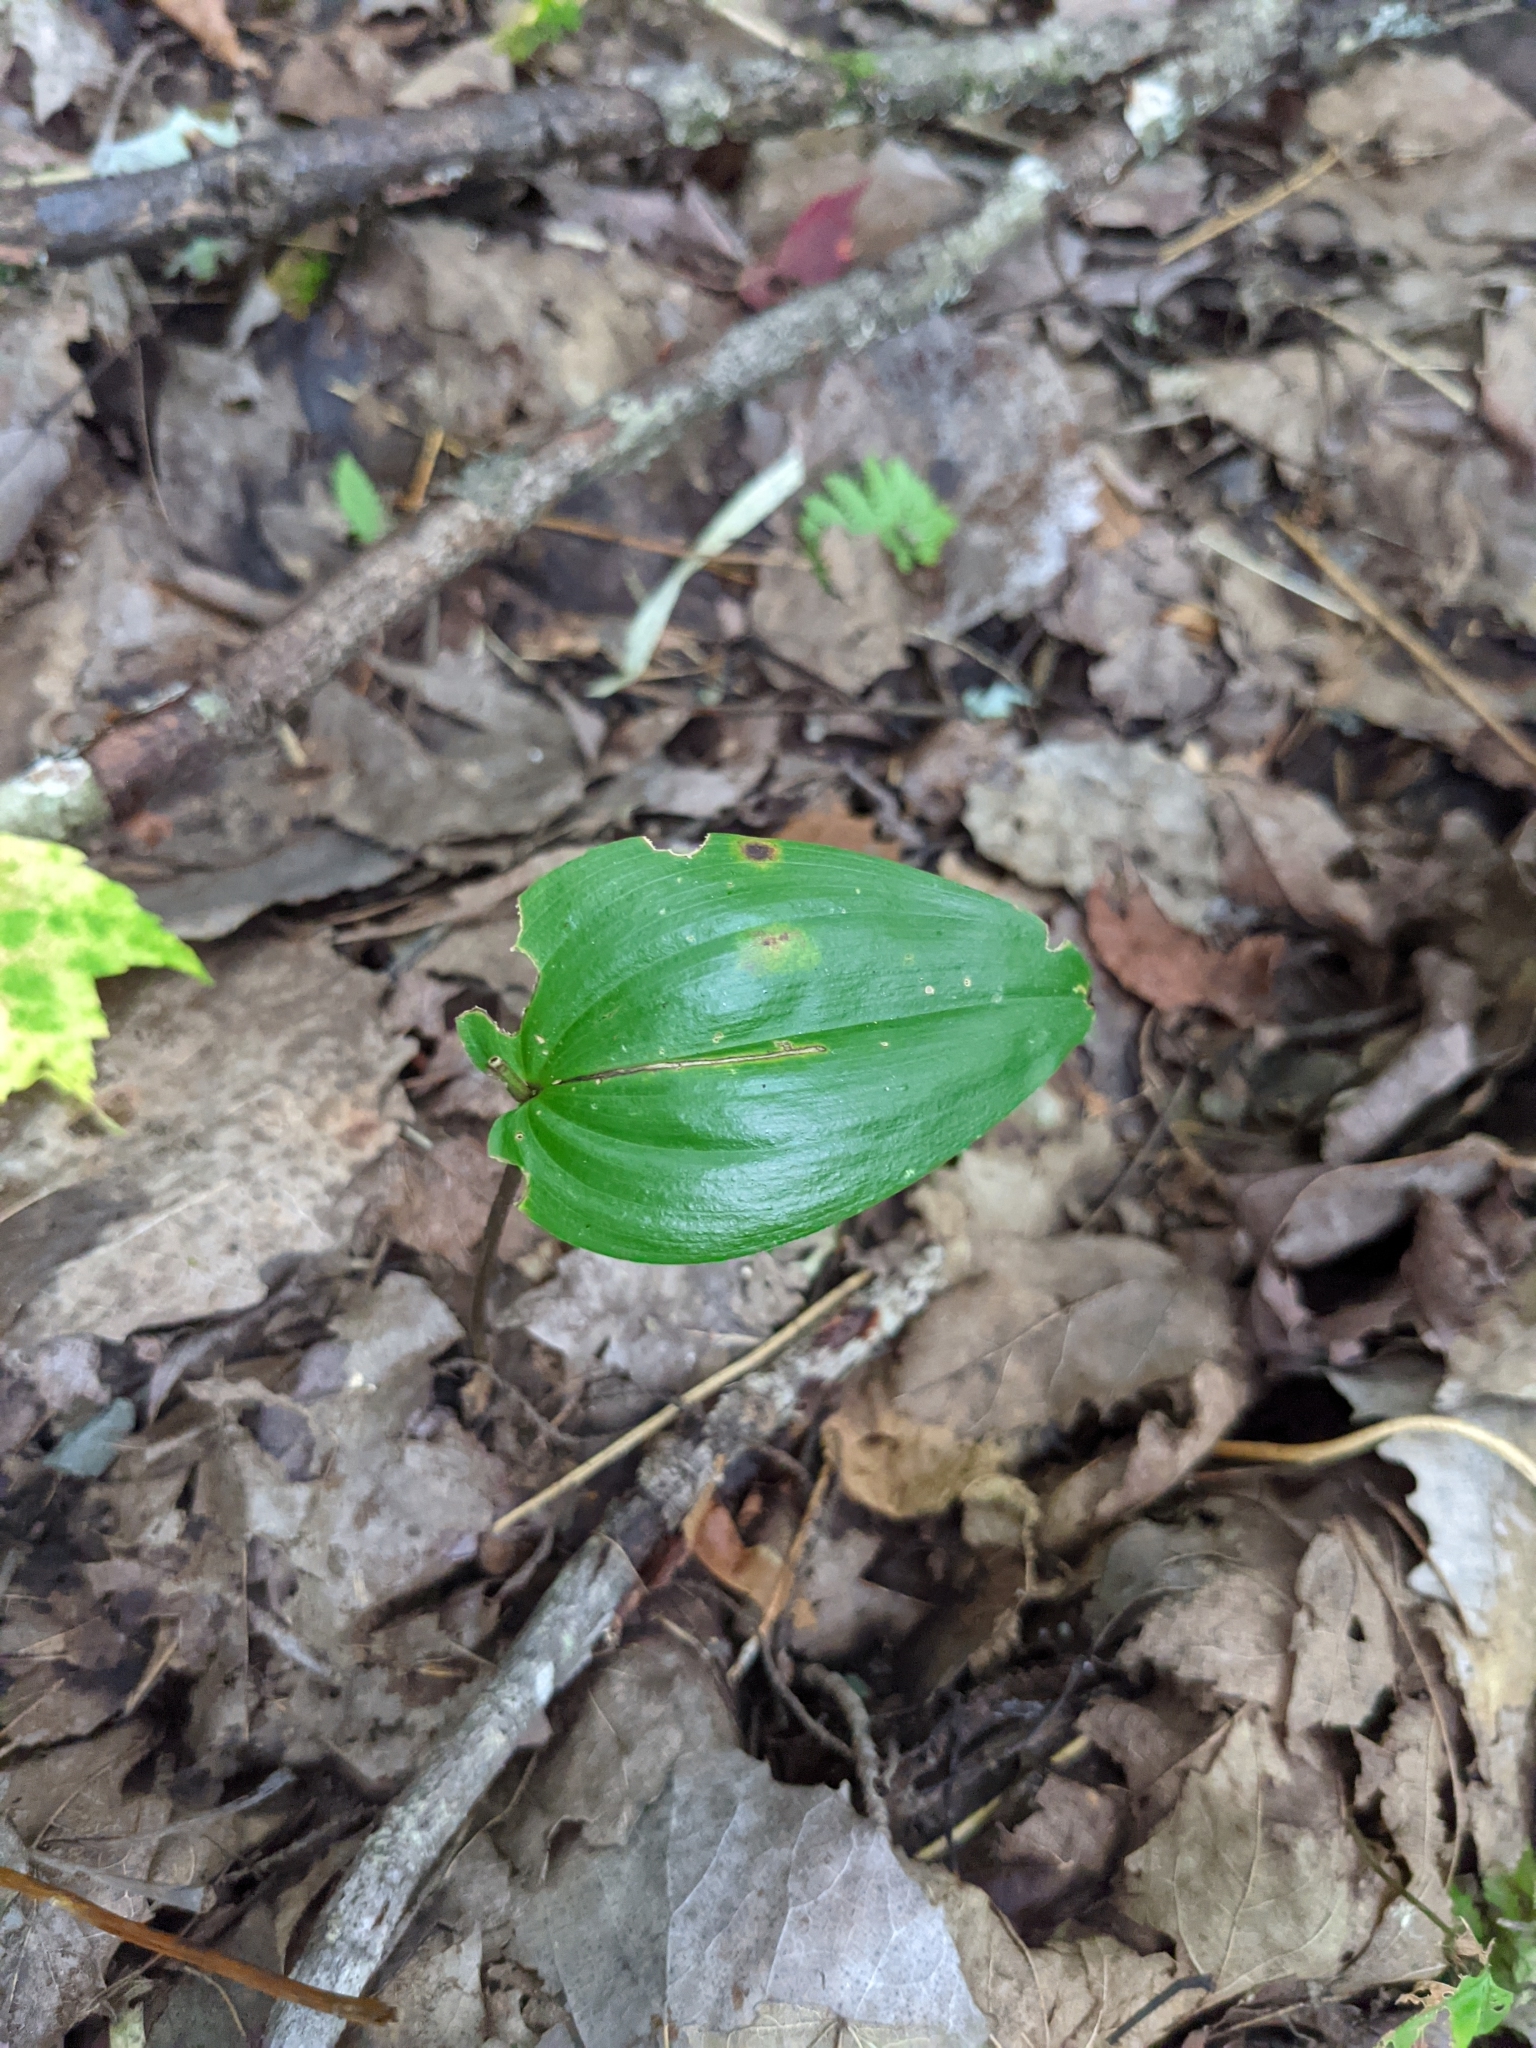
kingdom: Plantae
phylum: Tracheophyta
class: Liliopsida
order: Asparagales
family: Asparagaceae
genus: Maianthemum
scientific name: Maianthemum canadense
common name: False lily-of-the-valley
